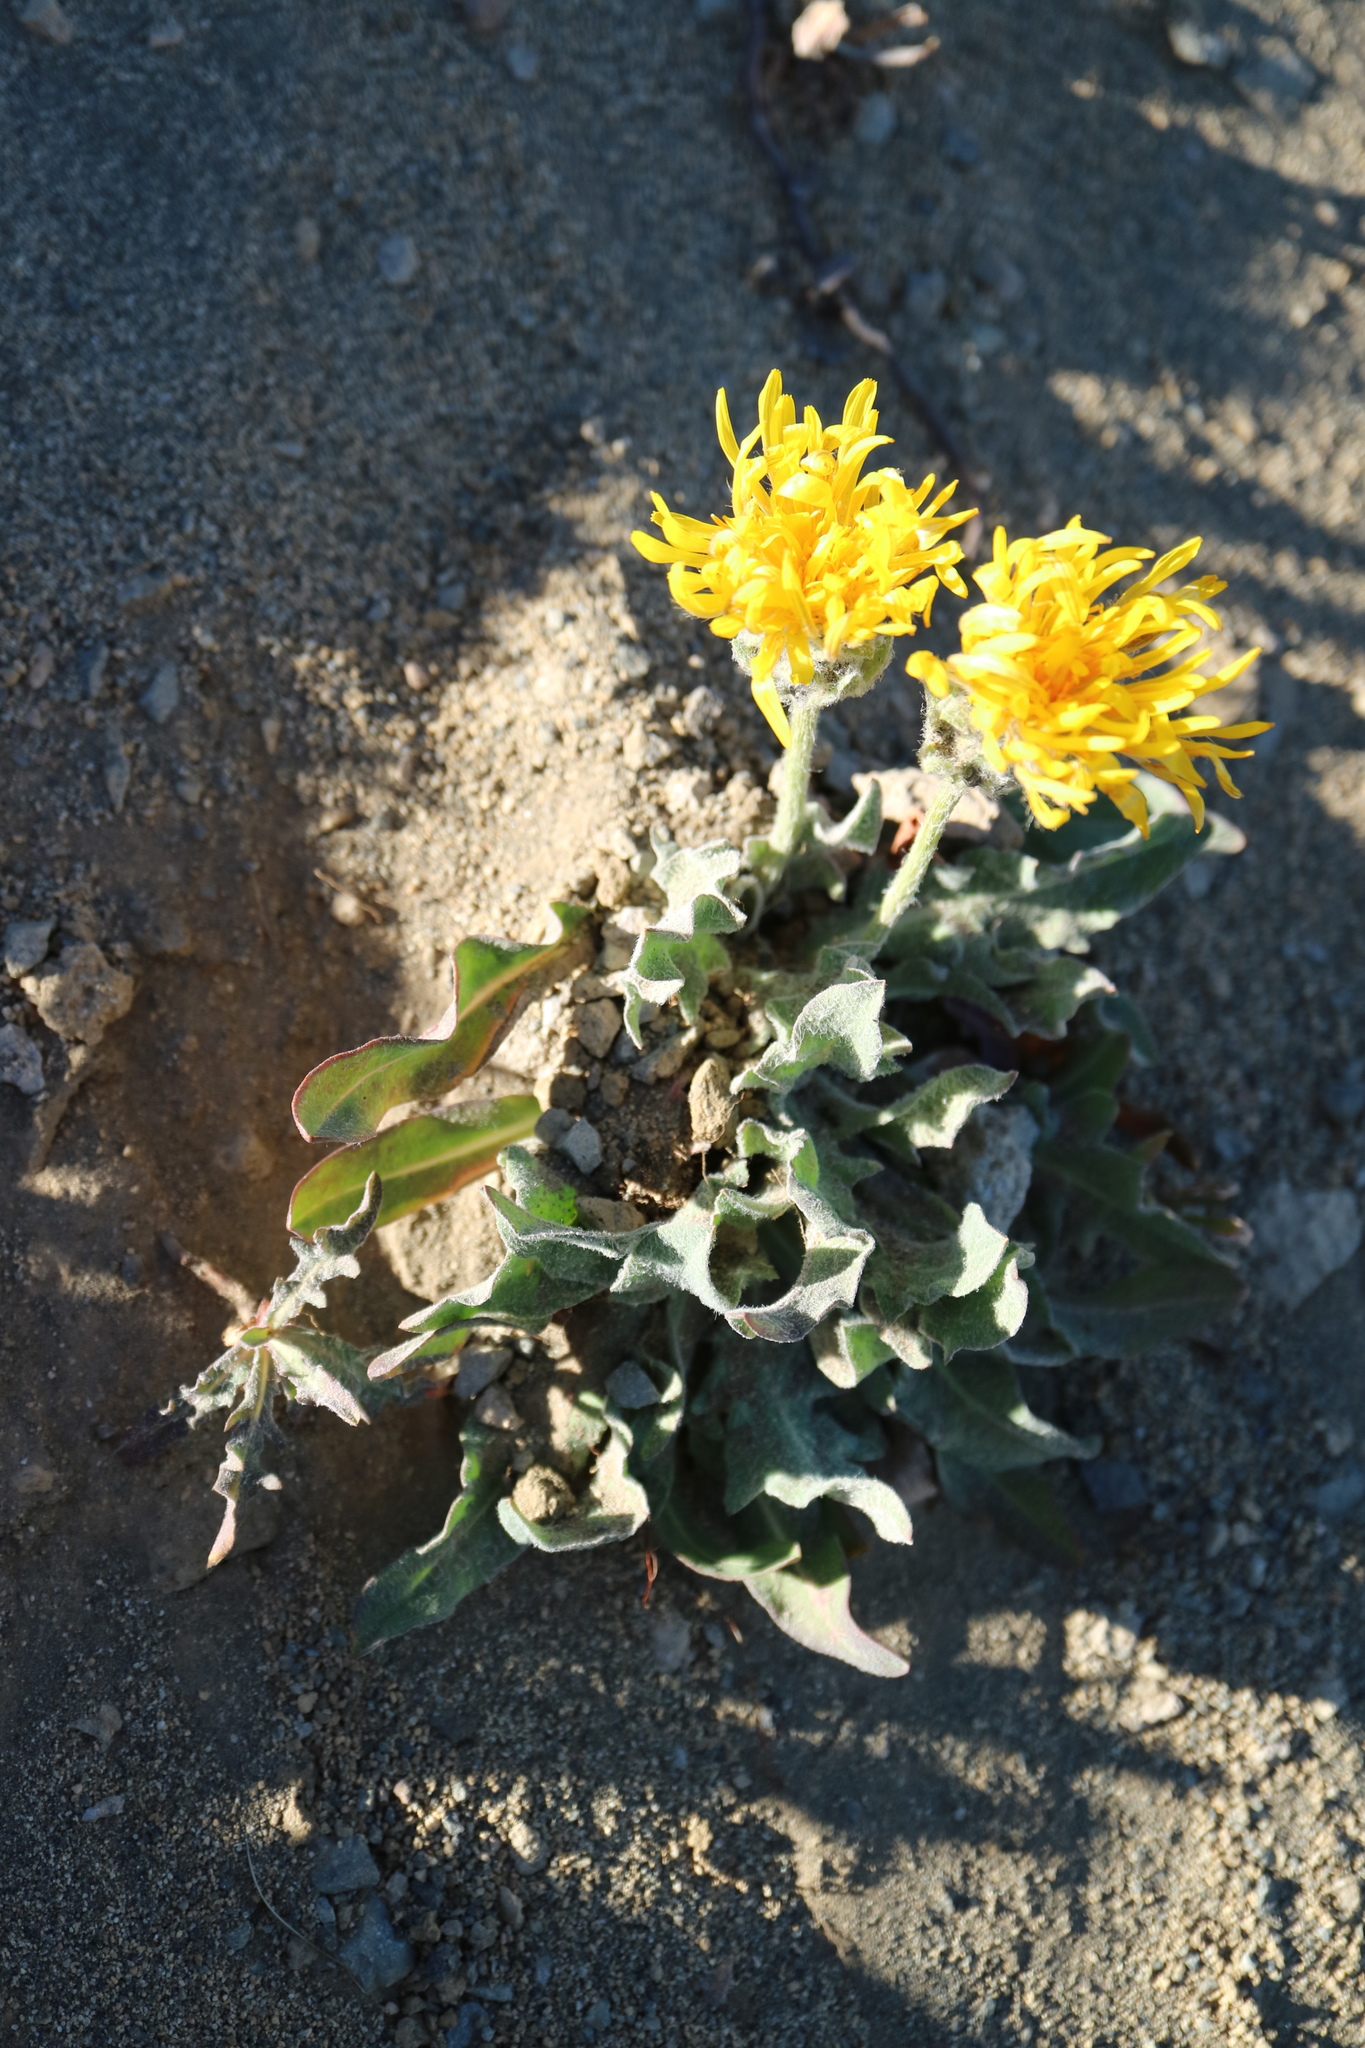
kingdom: Plantae
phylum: Tracheophyta
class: Magnoliopsida
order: Asterales
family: Asteraceae
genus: Agoseris
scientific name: Agoseris glauca
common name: Prairie agoseris
